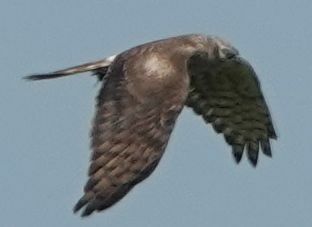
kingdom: Animalia
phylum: Chordata
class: Aves
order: Accipitriformes
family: Accipitridae
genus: Circus
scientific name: Circus pygargus
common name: Montagu's harrier
